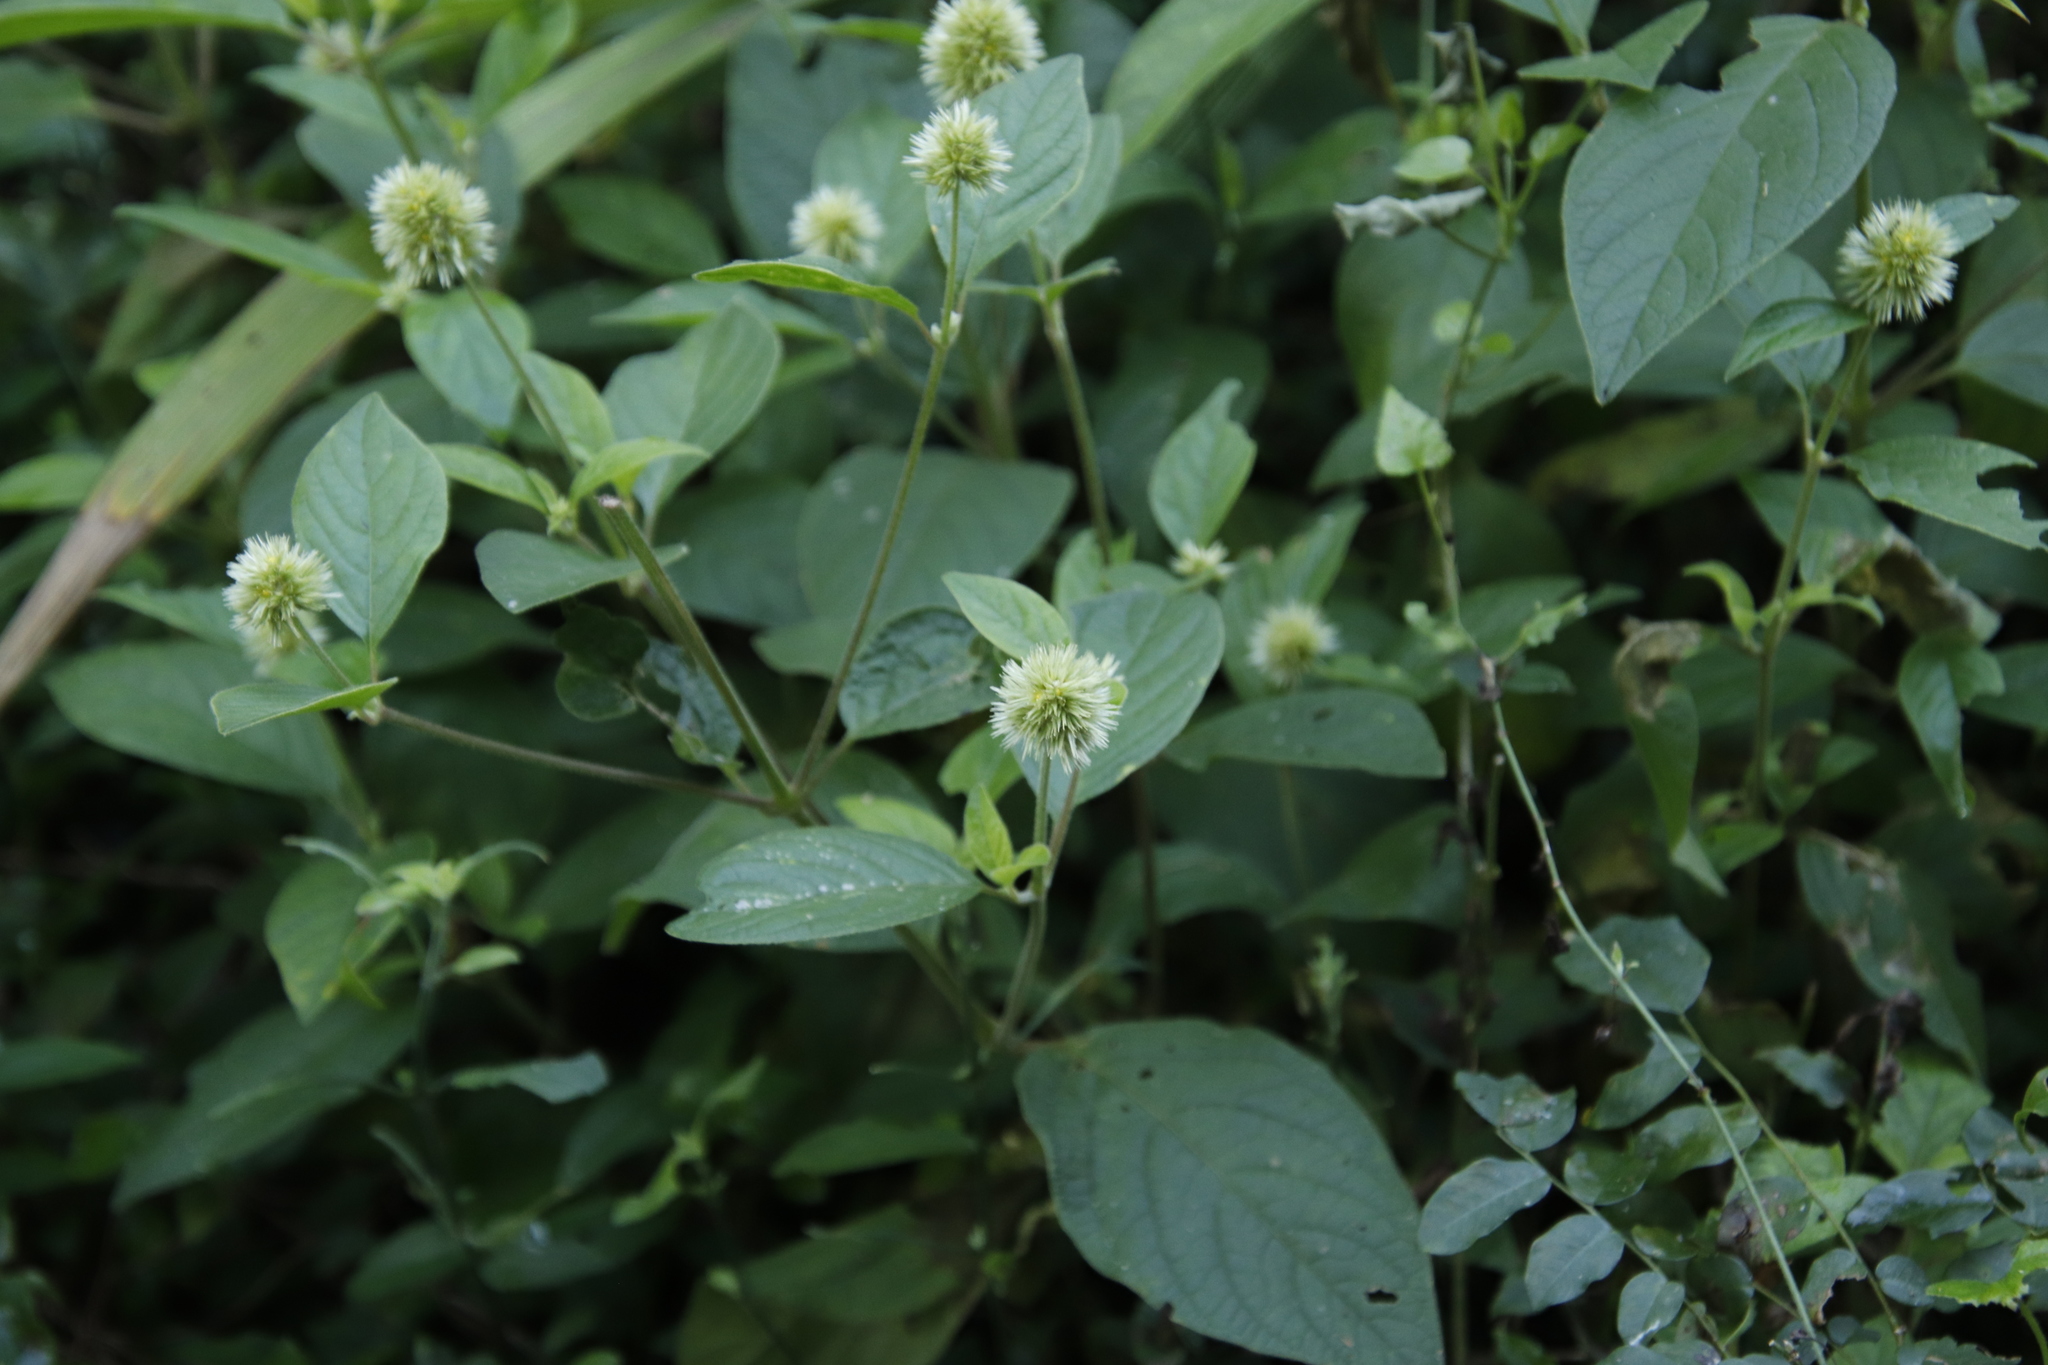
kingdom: Plantae
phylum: Tracheophyta
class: Magnoliopsida
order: Caryophyllales
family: Amaranthaceae
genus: Cyathula
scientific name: Cyathula uncinulata
